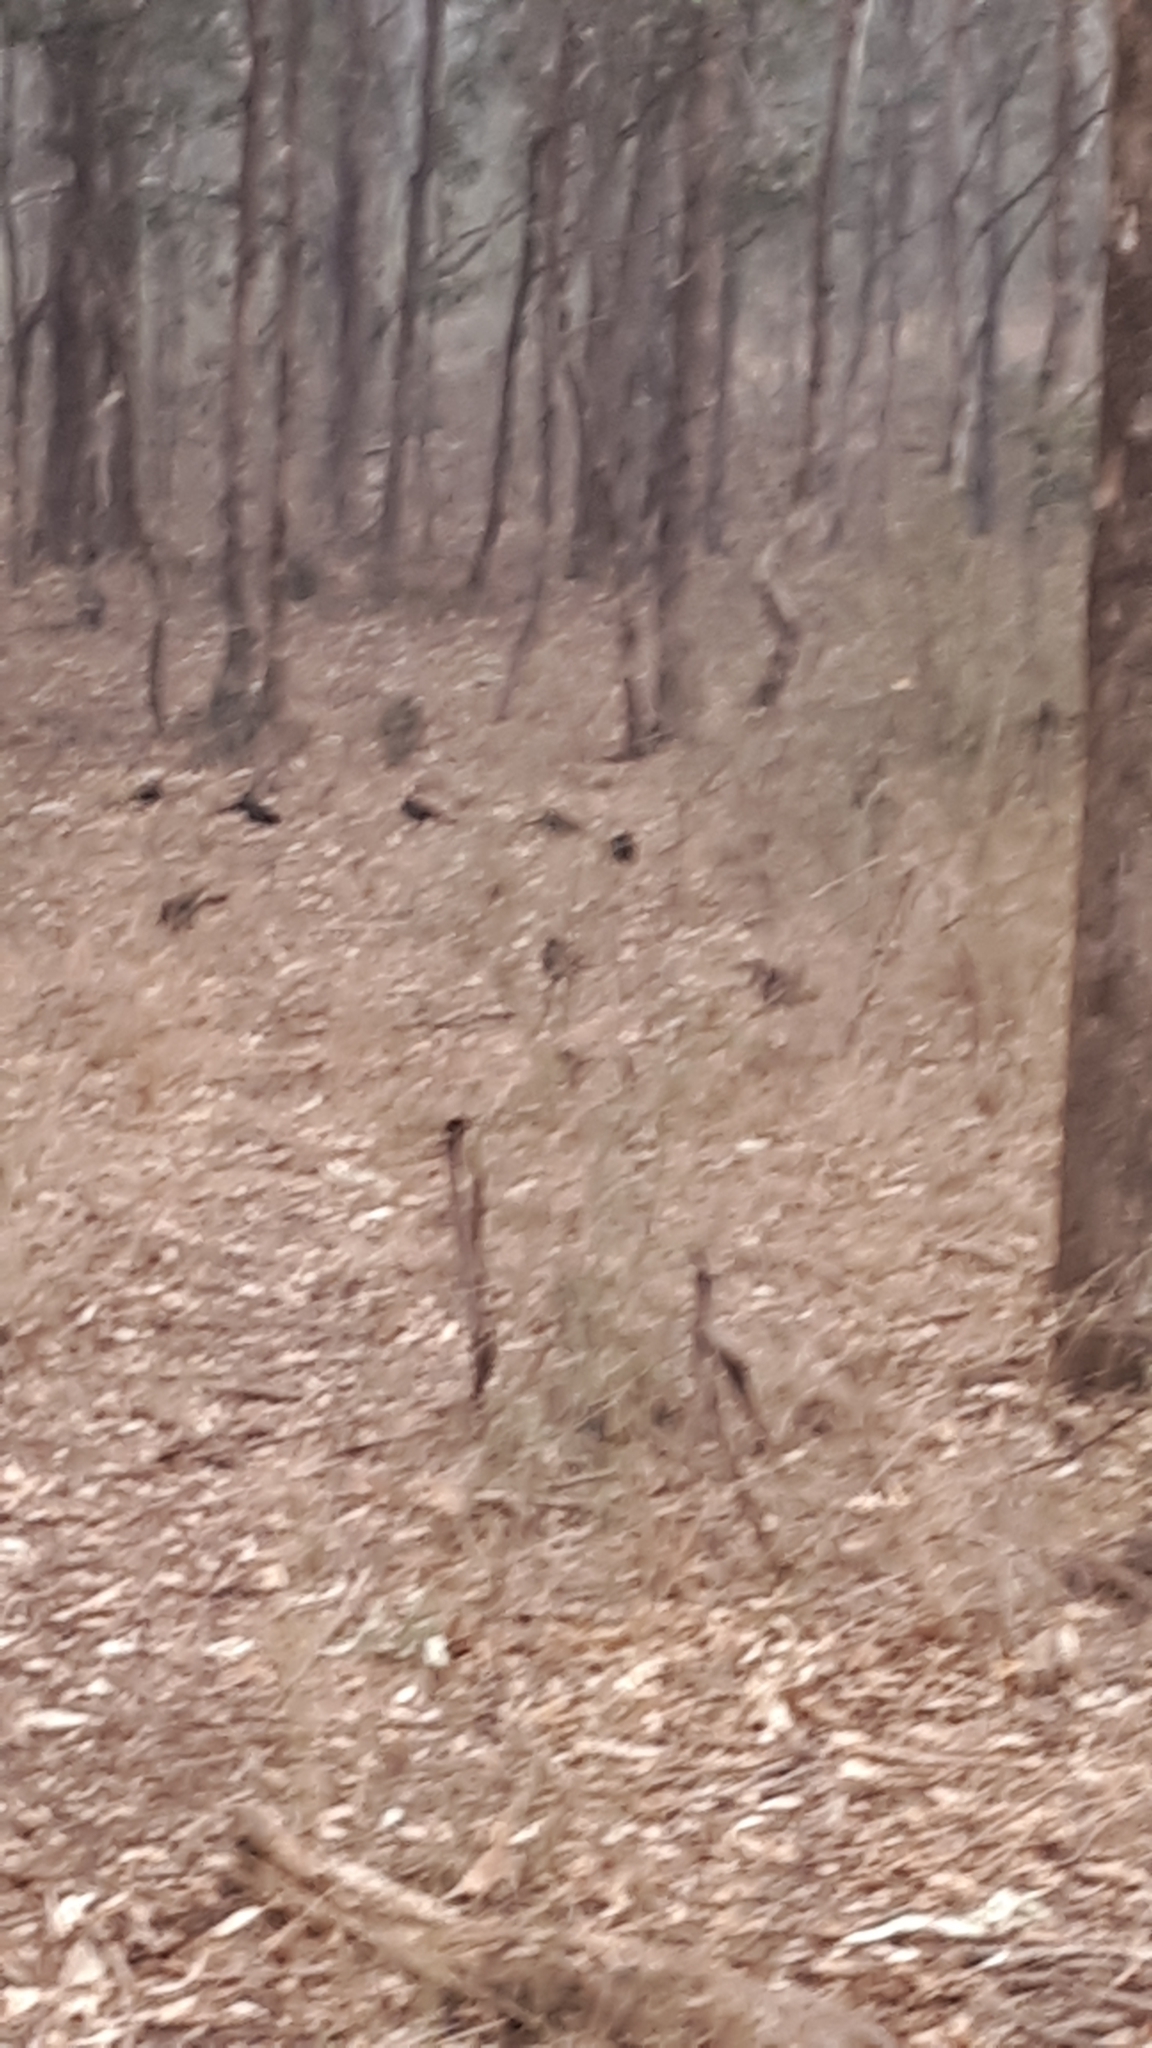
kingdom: Animalia
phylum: Chordata
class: Aves
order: Passeriformes
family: Corcoracidae
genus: Corcorax
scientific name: Corcorax melanoramphos
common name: White-winged chough
